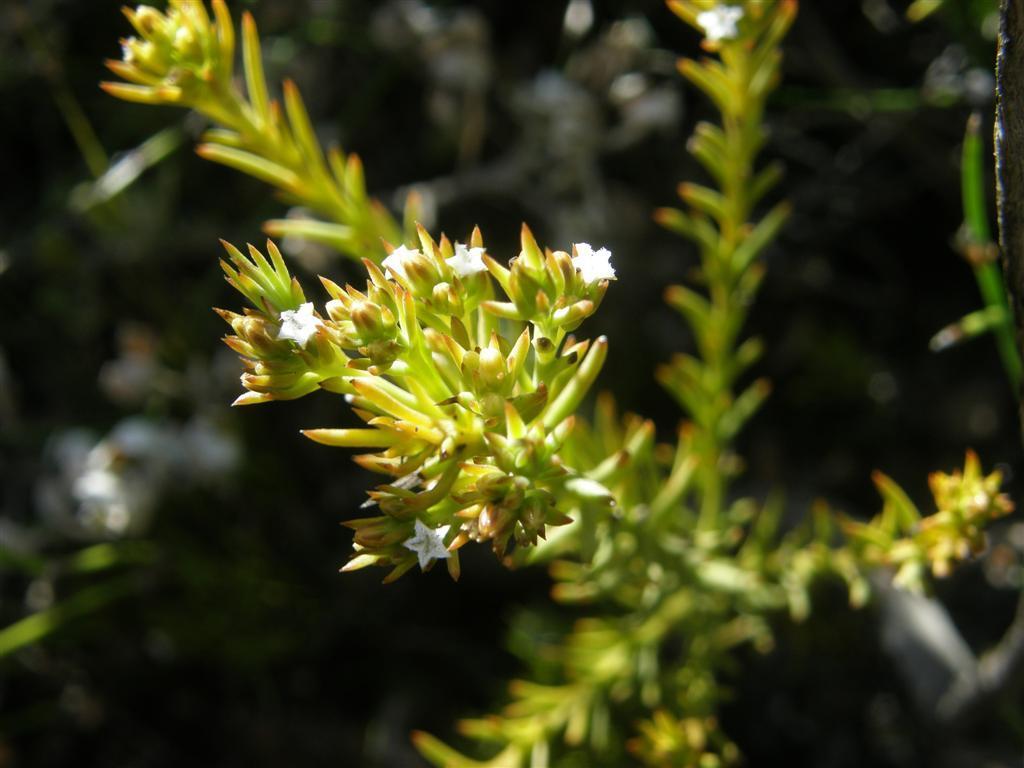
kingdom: Plantae
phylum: Tracheophyta
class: Magnoliopsida
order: Santalales
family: Thesiaceae
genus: Thesium
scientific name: Thesium carinatum
